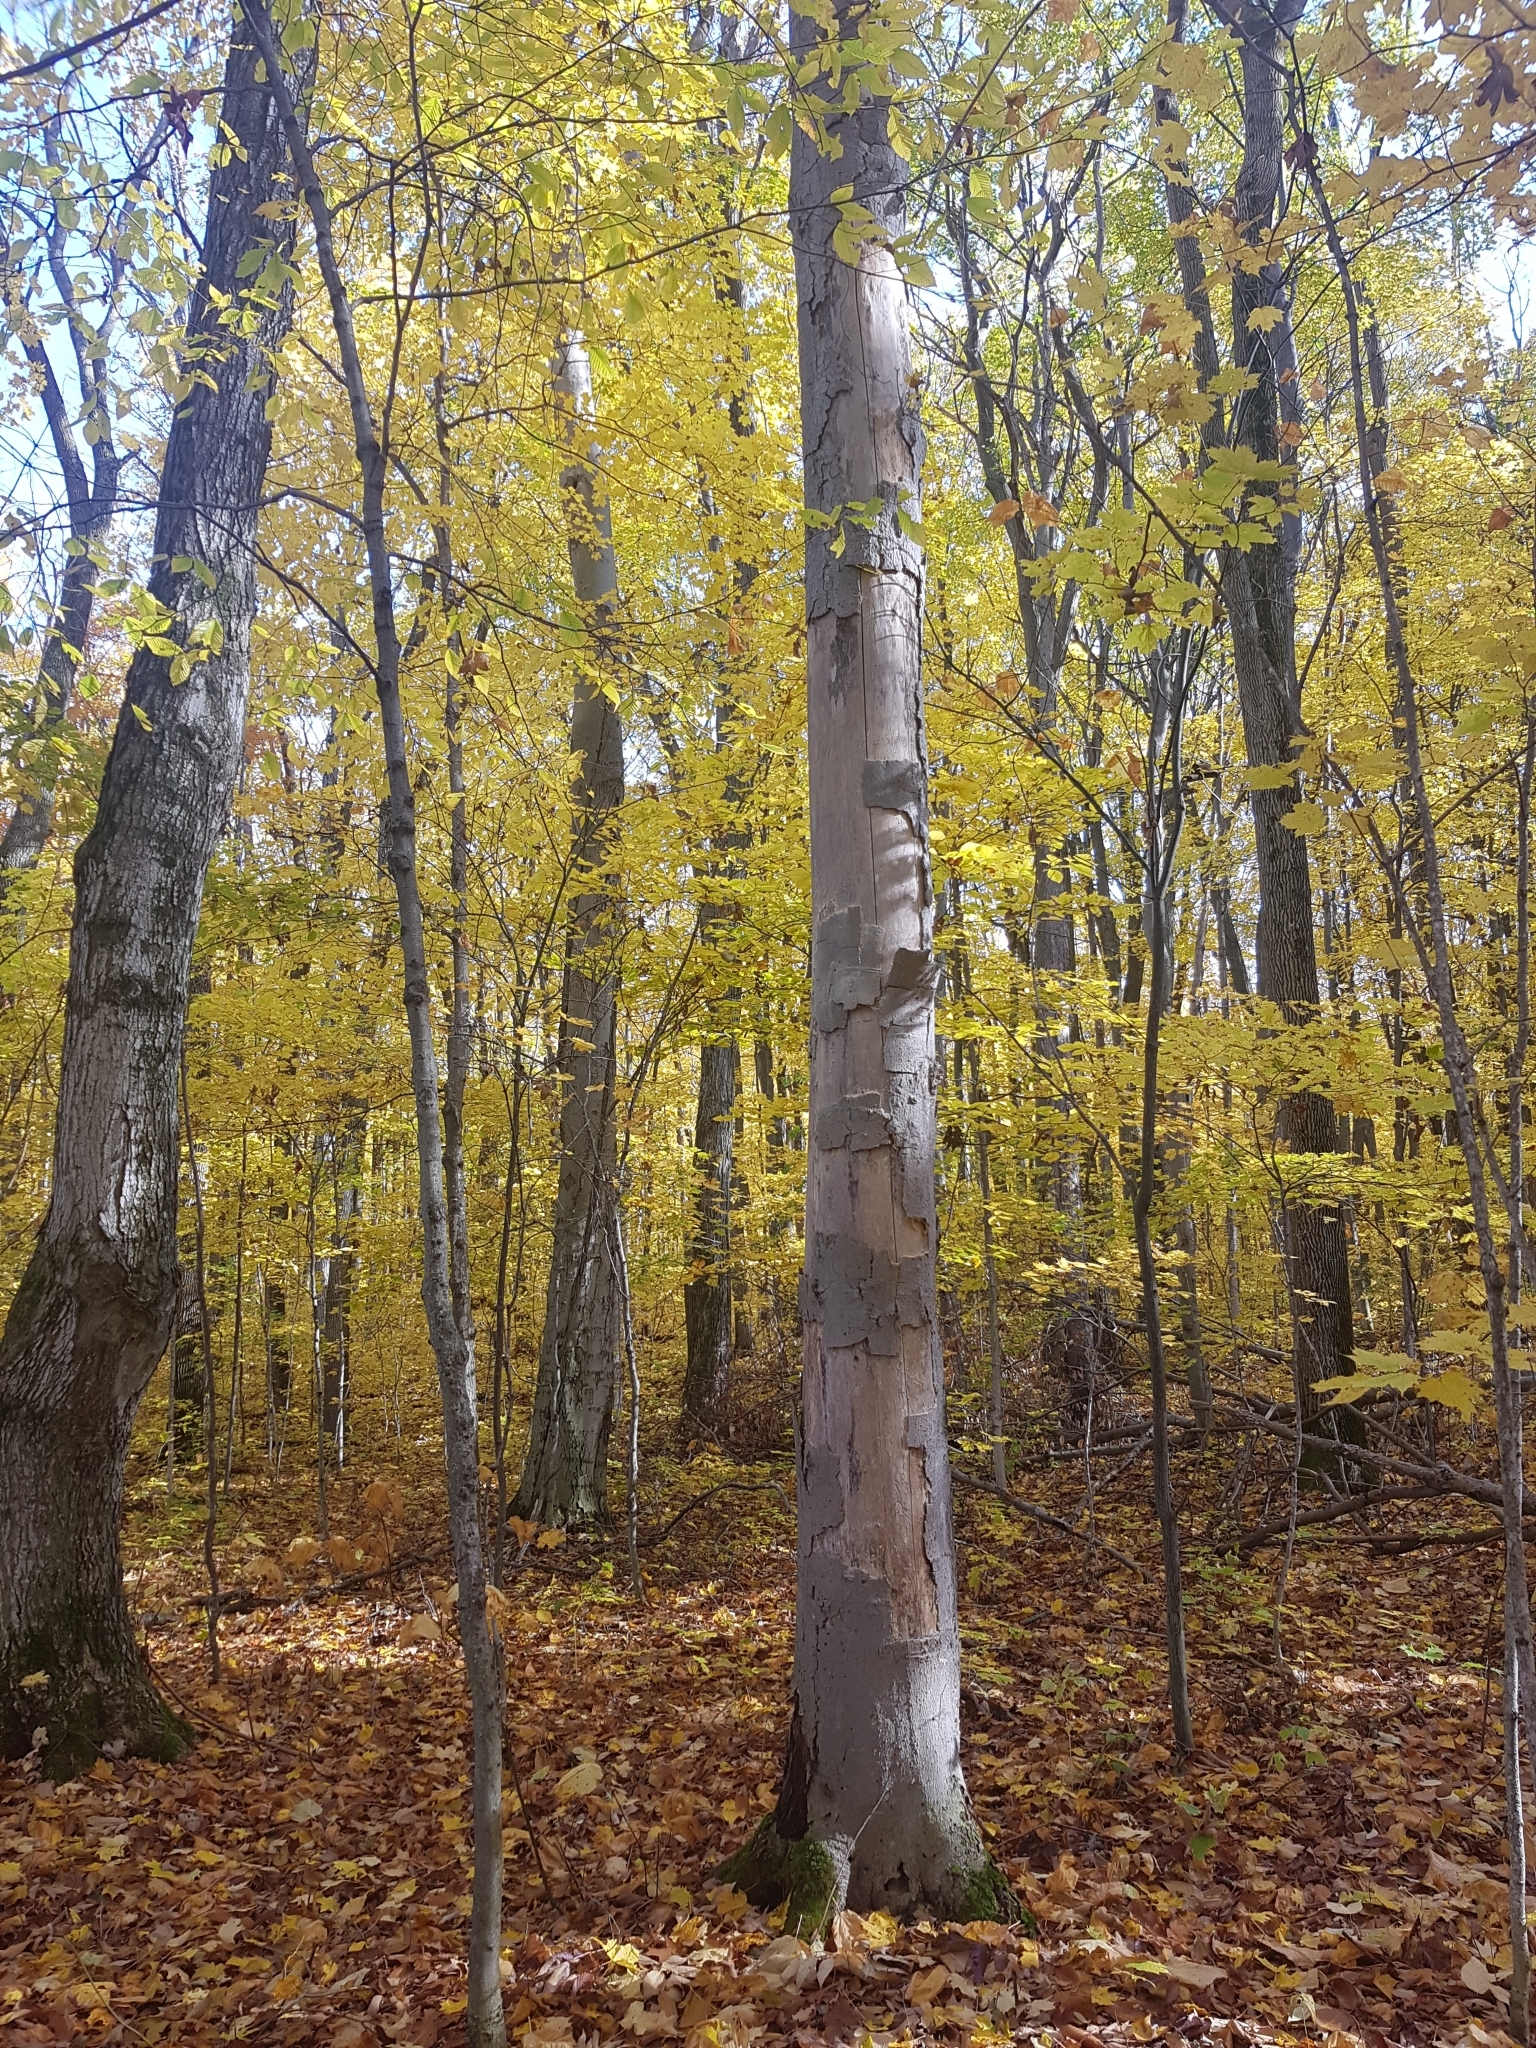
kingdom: Plantae
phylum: Tracheophyta
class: Magnoliopsida
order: Fagales
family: Fagaceae
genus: Fagus
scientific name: Fagus grandifolia
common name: American beech
